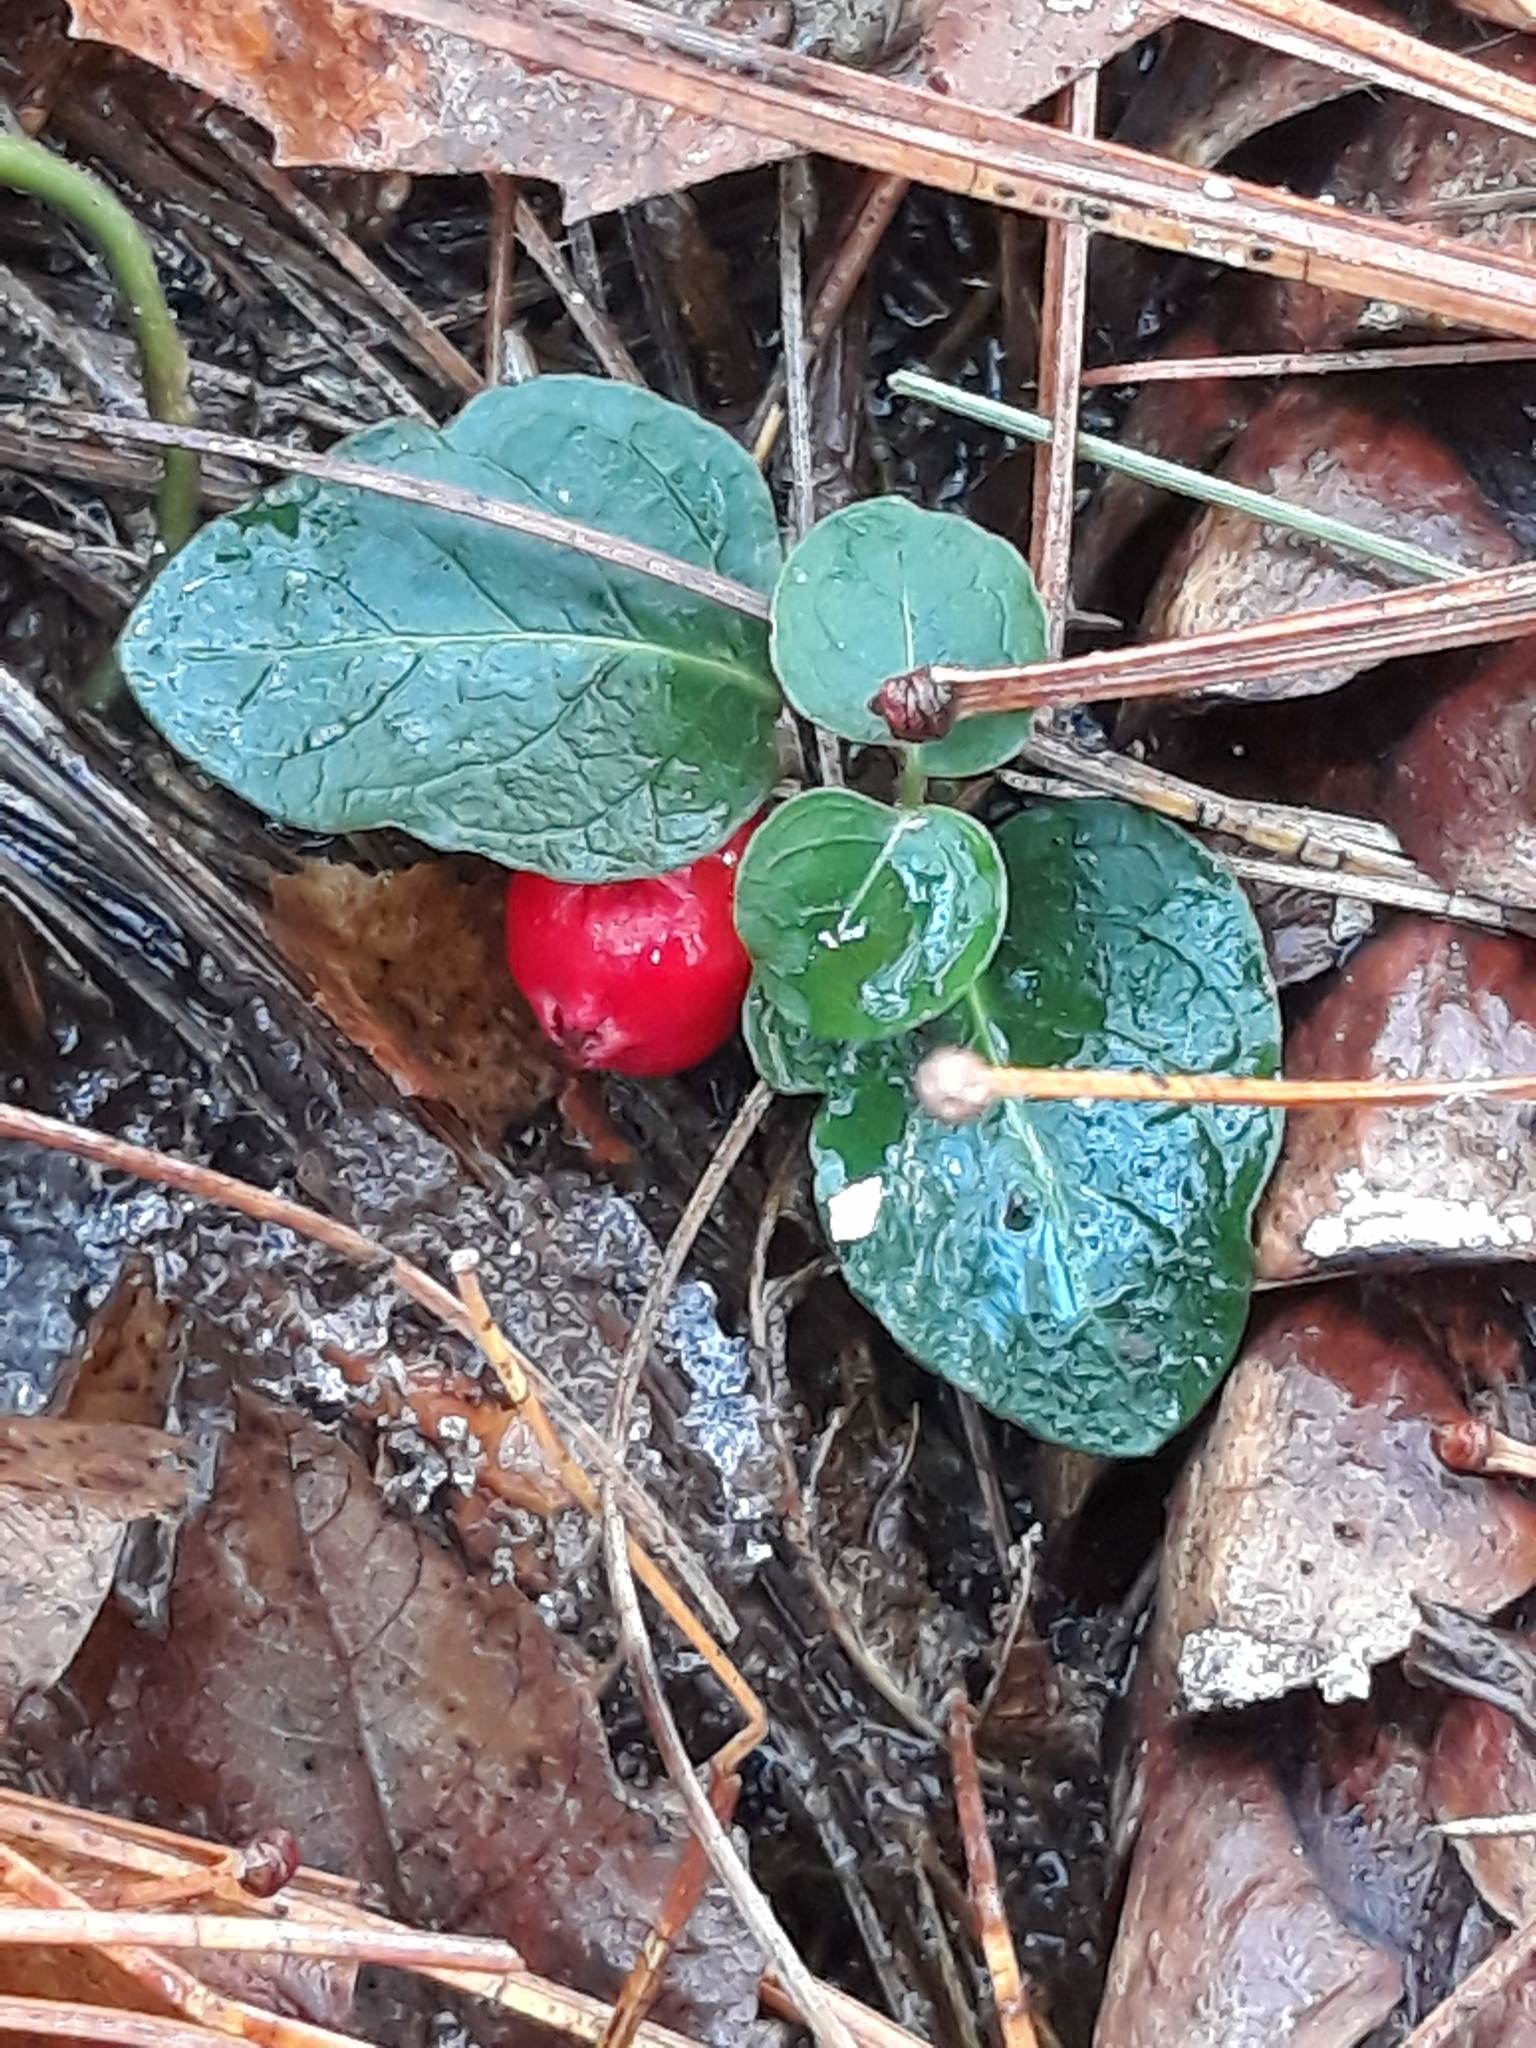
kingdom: Plantae
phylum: Tracheophyta
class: Magnoliopsida
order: Gentianales
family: Rubiaceae
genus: Mitchella
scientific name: Mitchella repens
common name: Partridge-berry
